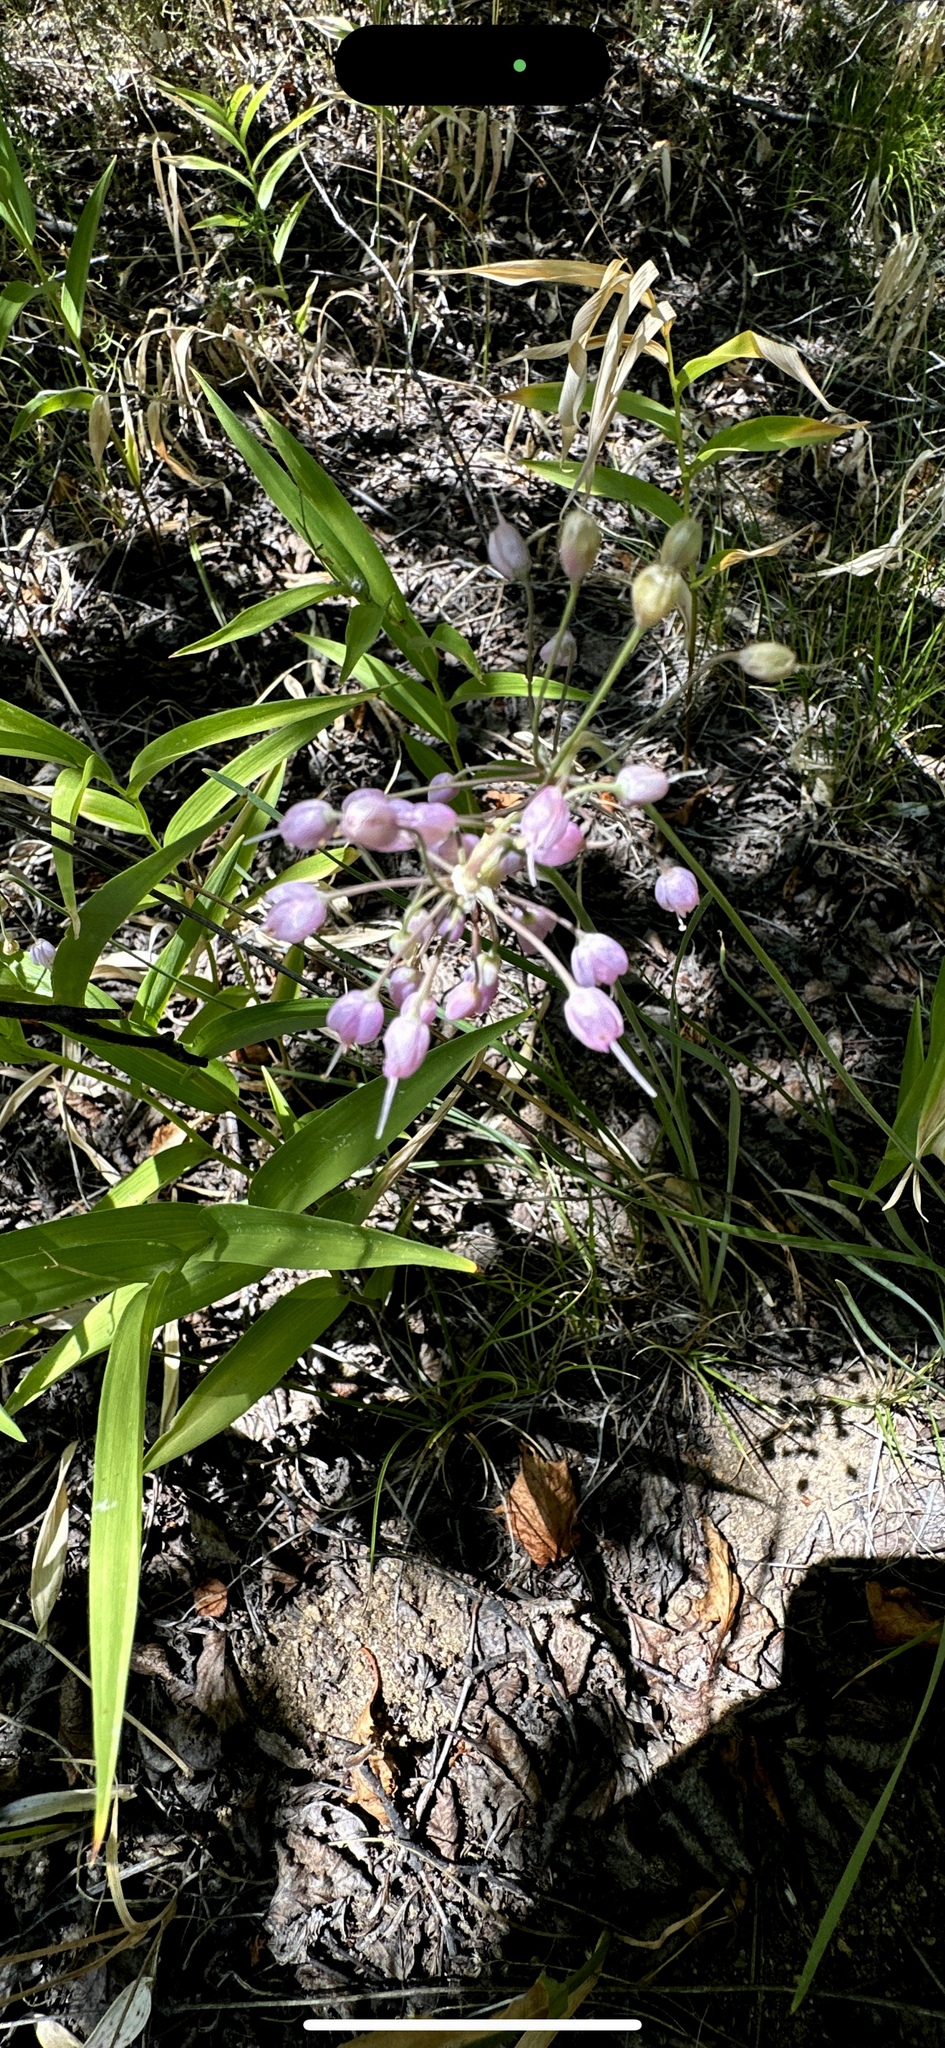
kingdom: Plantae
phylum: Tracheophyta
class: Liliopsida
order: Asparagales
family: Amaryllidaceae
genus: Allium
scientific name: Allium cernuum
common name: Nodding onion
